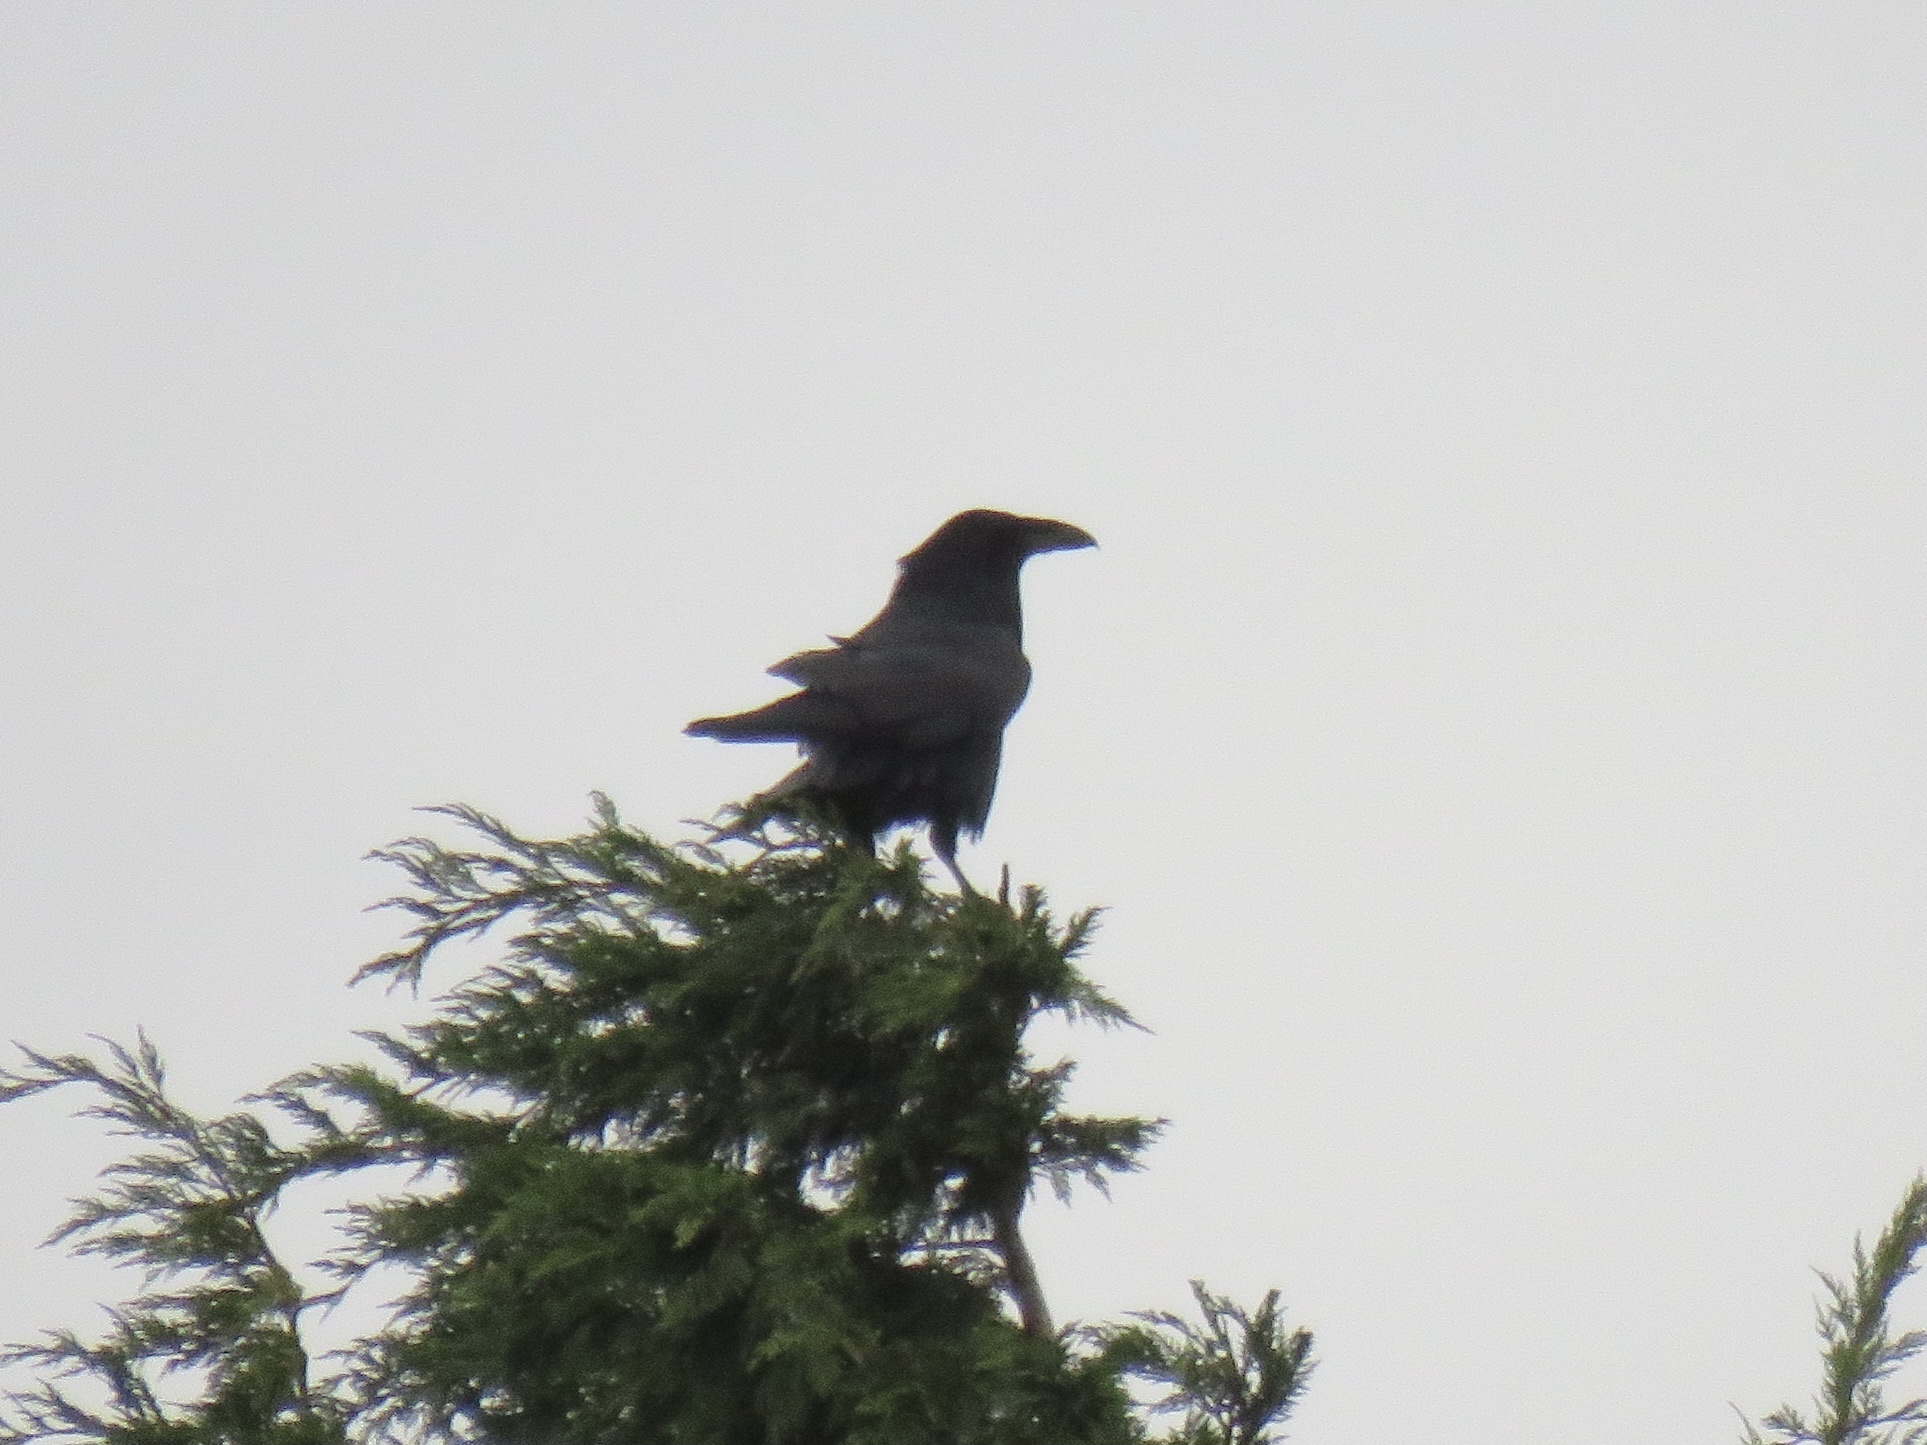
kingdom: Animalia
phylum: Chordata
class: Aves
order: Passeriformes
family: Corvidae
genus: Corvus
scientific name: Corvus corax
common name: Common raven
